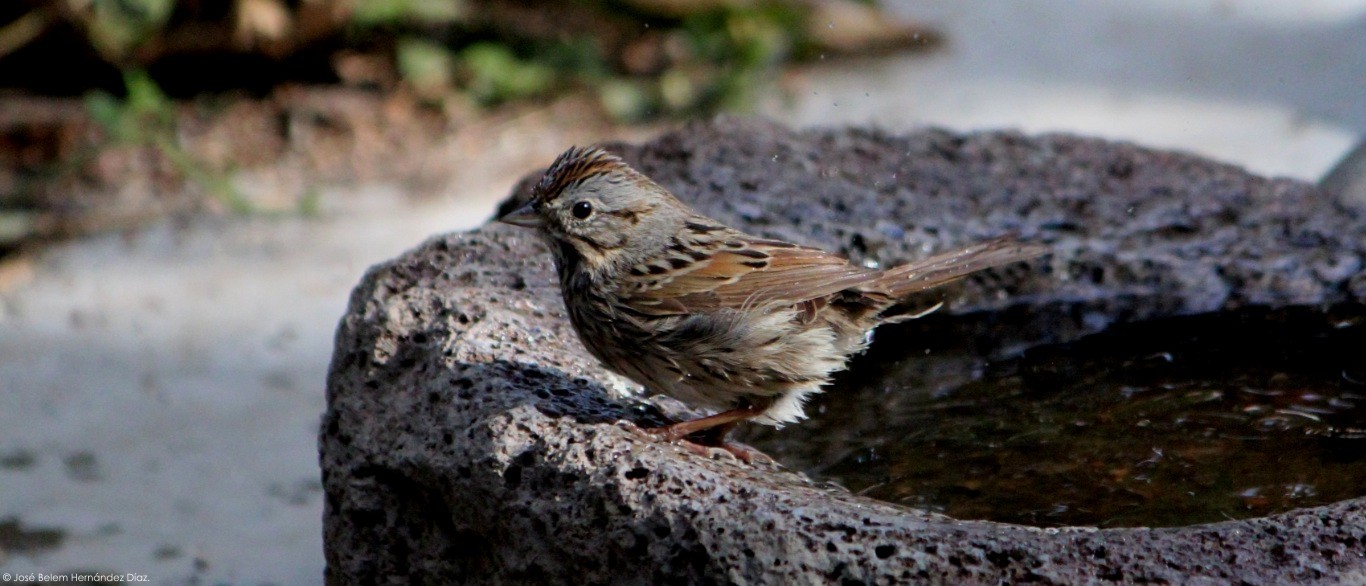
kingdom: Animalia
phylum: Chordata
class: Aves
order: Passeriformes
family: Passerellidae
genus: Melospiza
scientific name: Melospiza lincolnii
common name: Lincoln's sparrow
